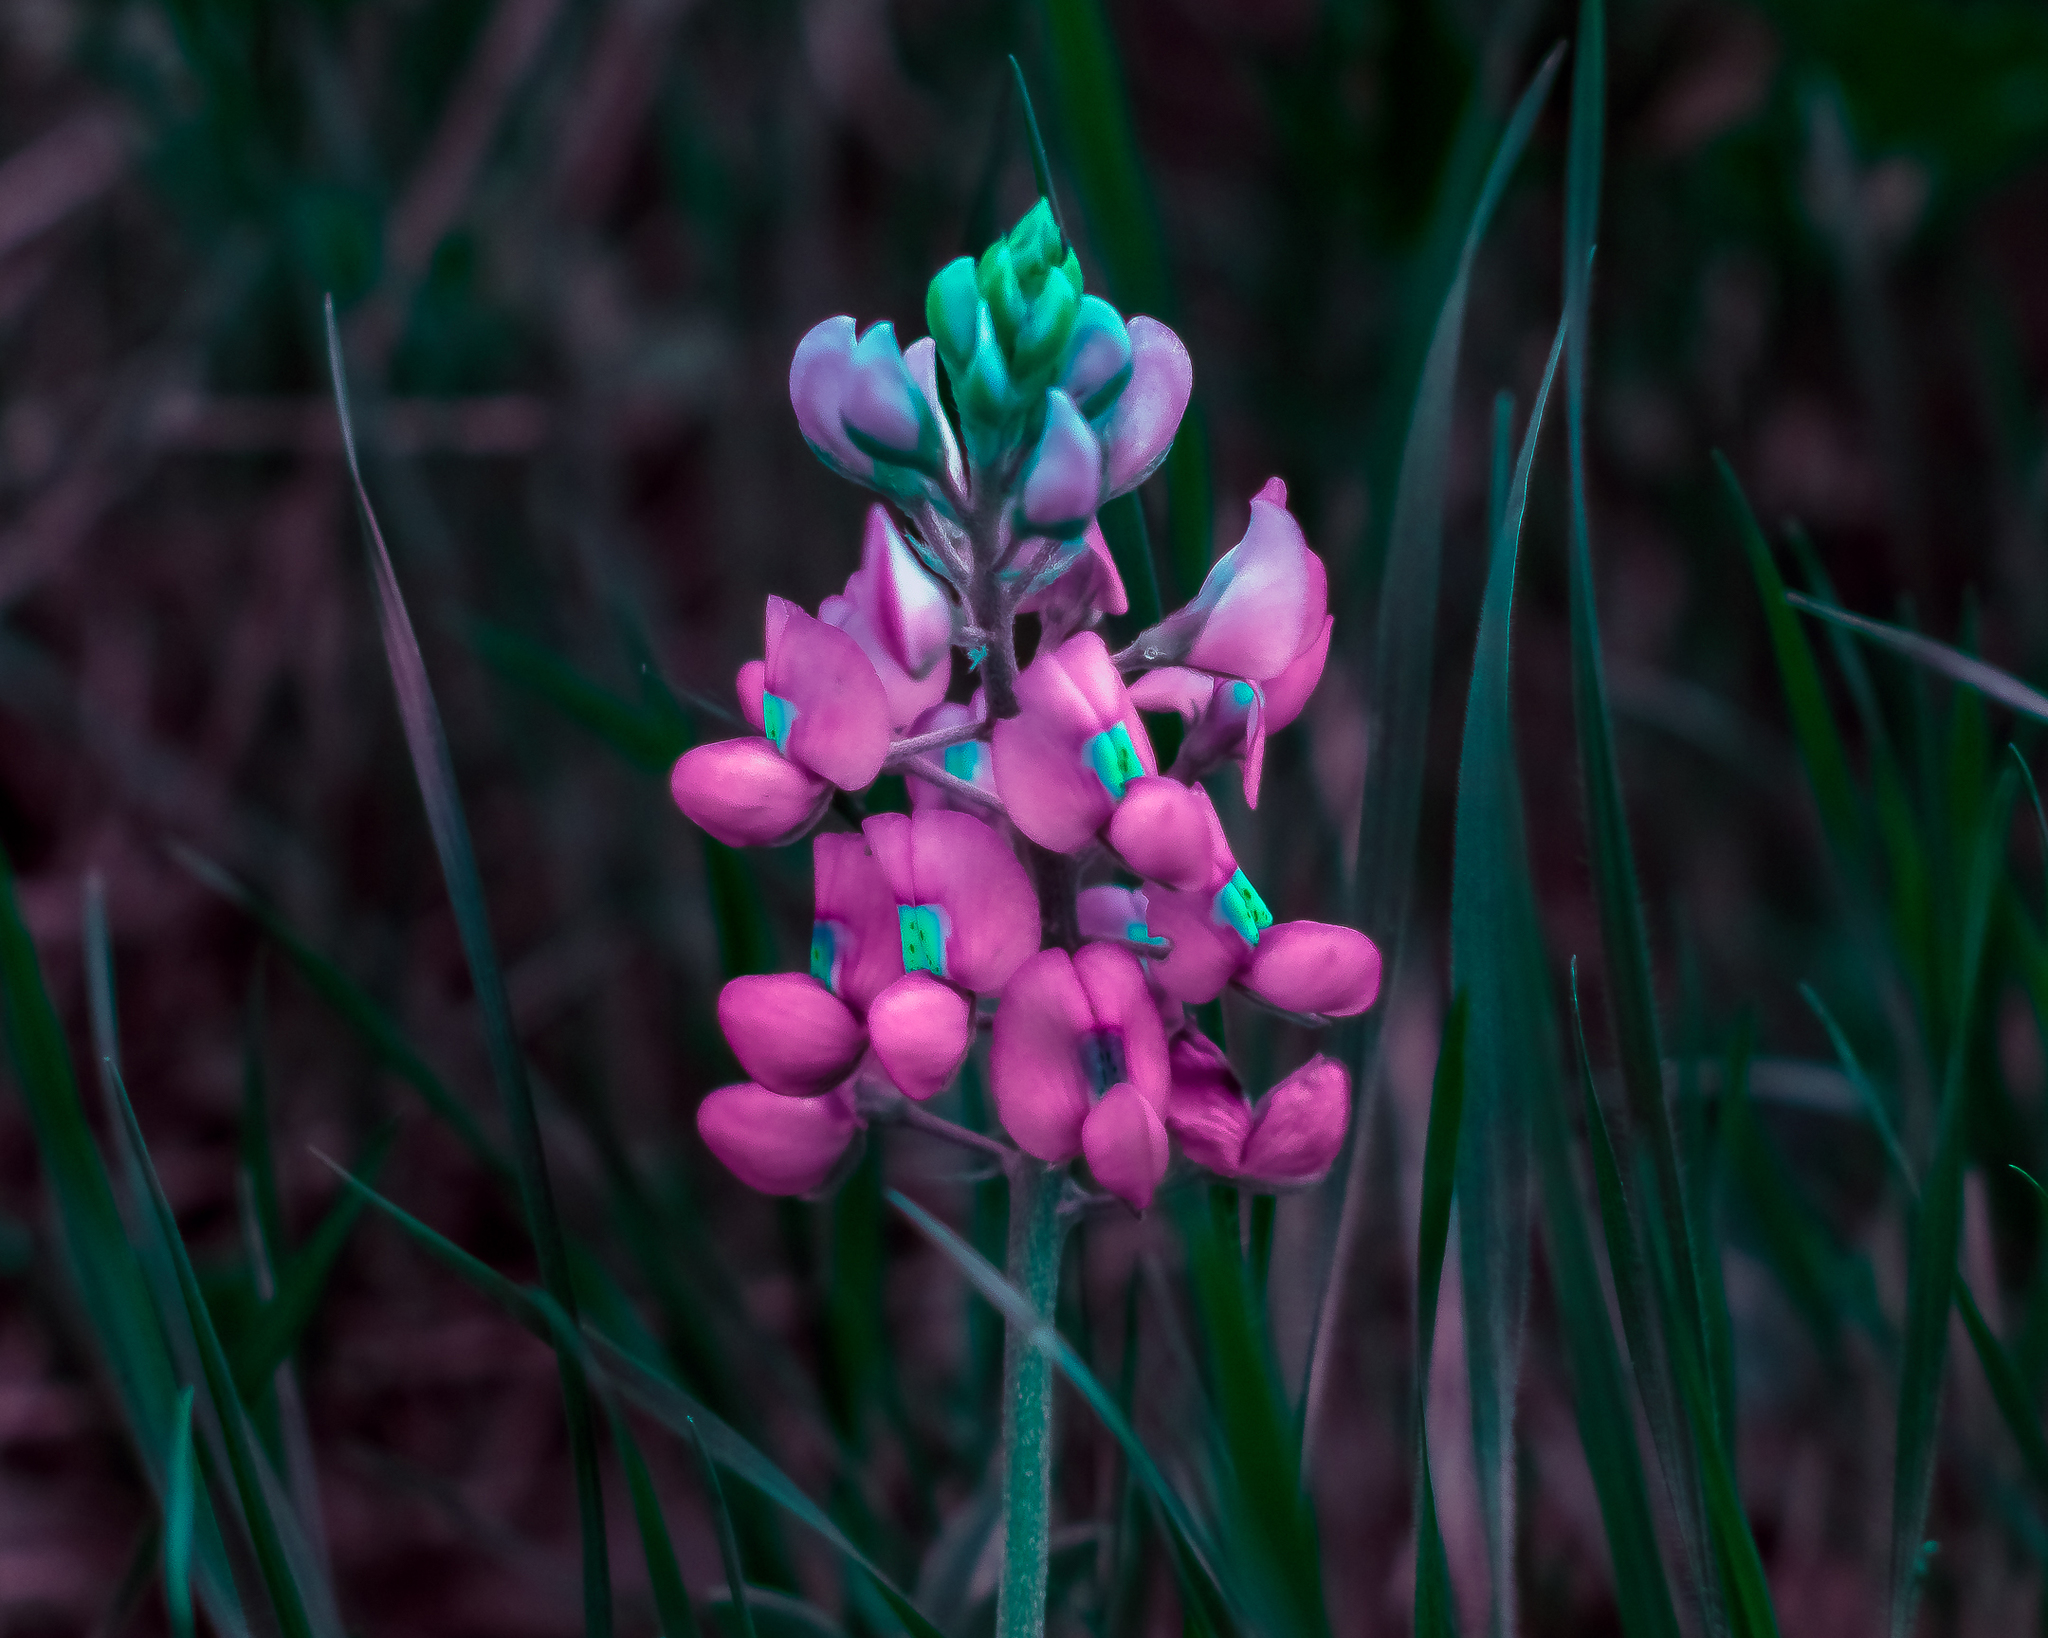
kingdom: Plantae
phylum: Tracheophyta
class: Magnoliopsida
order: Fabales
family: Fabaceae
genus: Lupinus
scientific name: Lupinus texensis
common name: Texas bluebonnet
